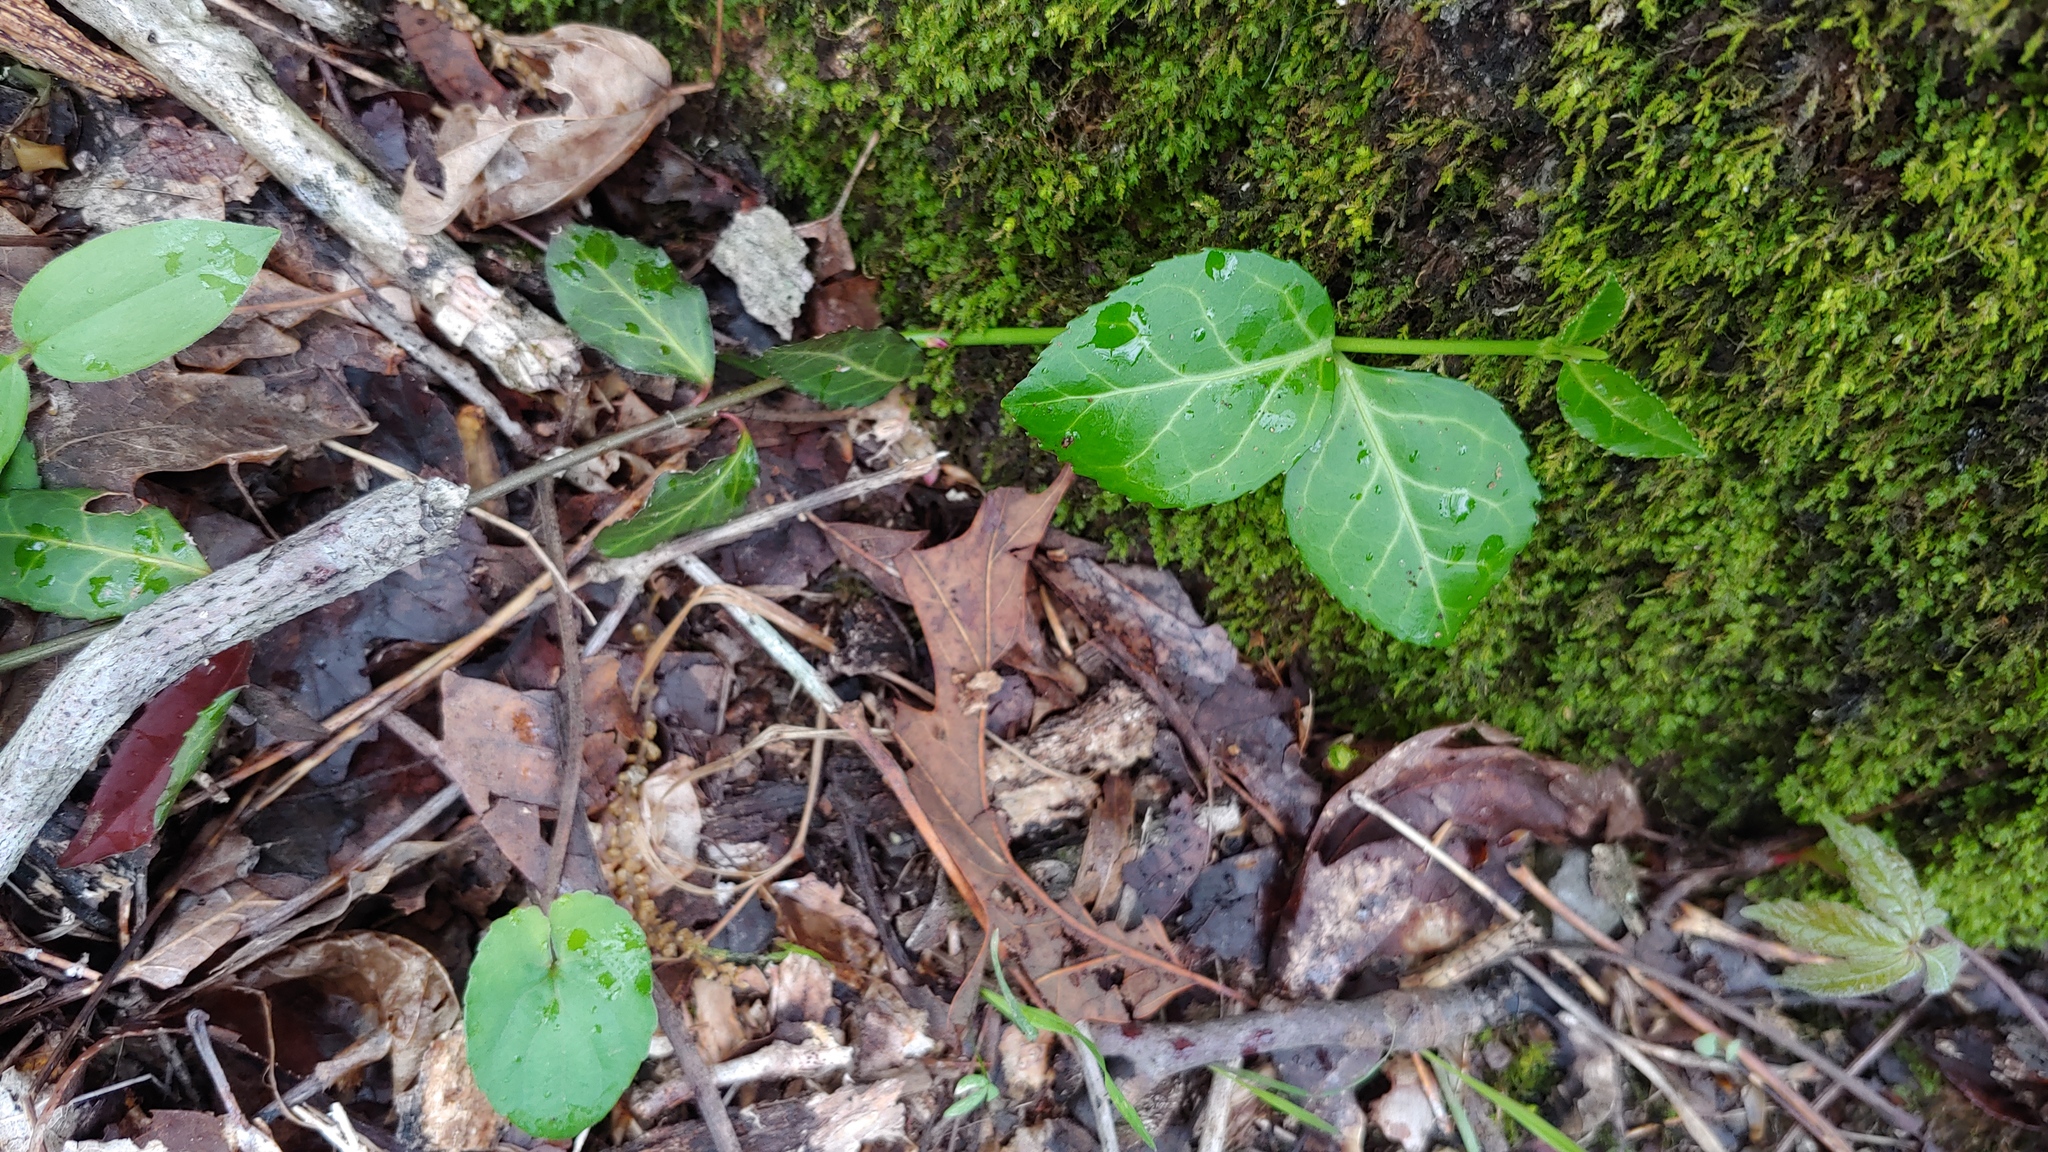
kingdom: Plantae
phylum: Tracheophyta
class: Magnoliopsida
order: Celastrales
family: Celastraceae
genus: Euonymus
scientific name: Euonymus fortunei
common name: Climbing euonymus
